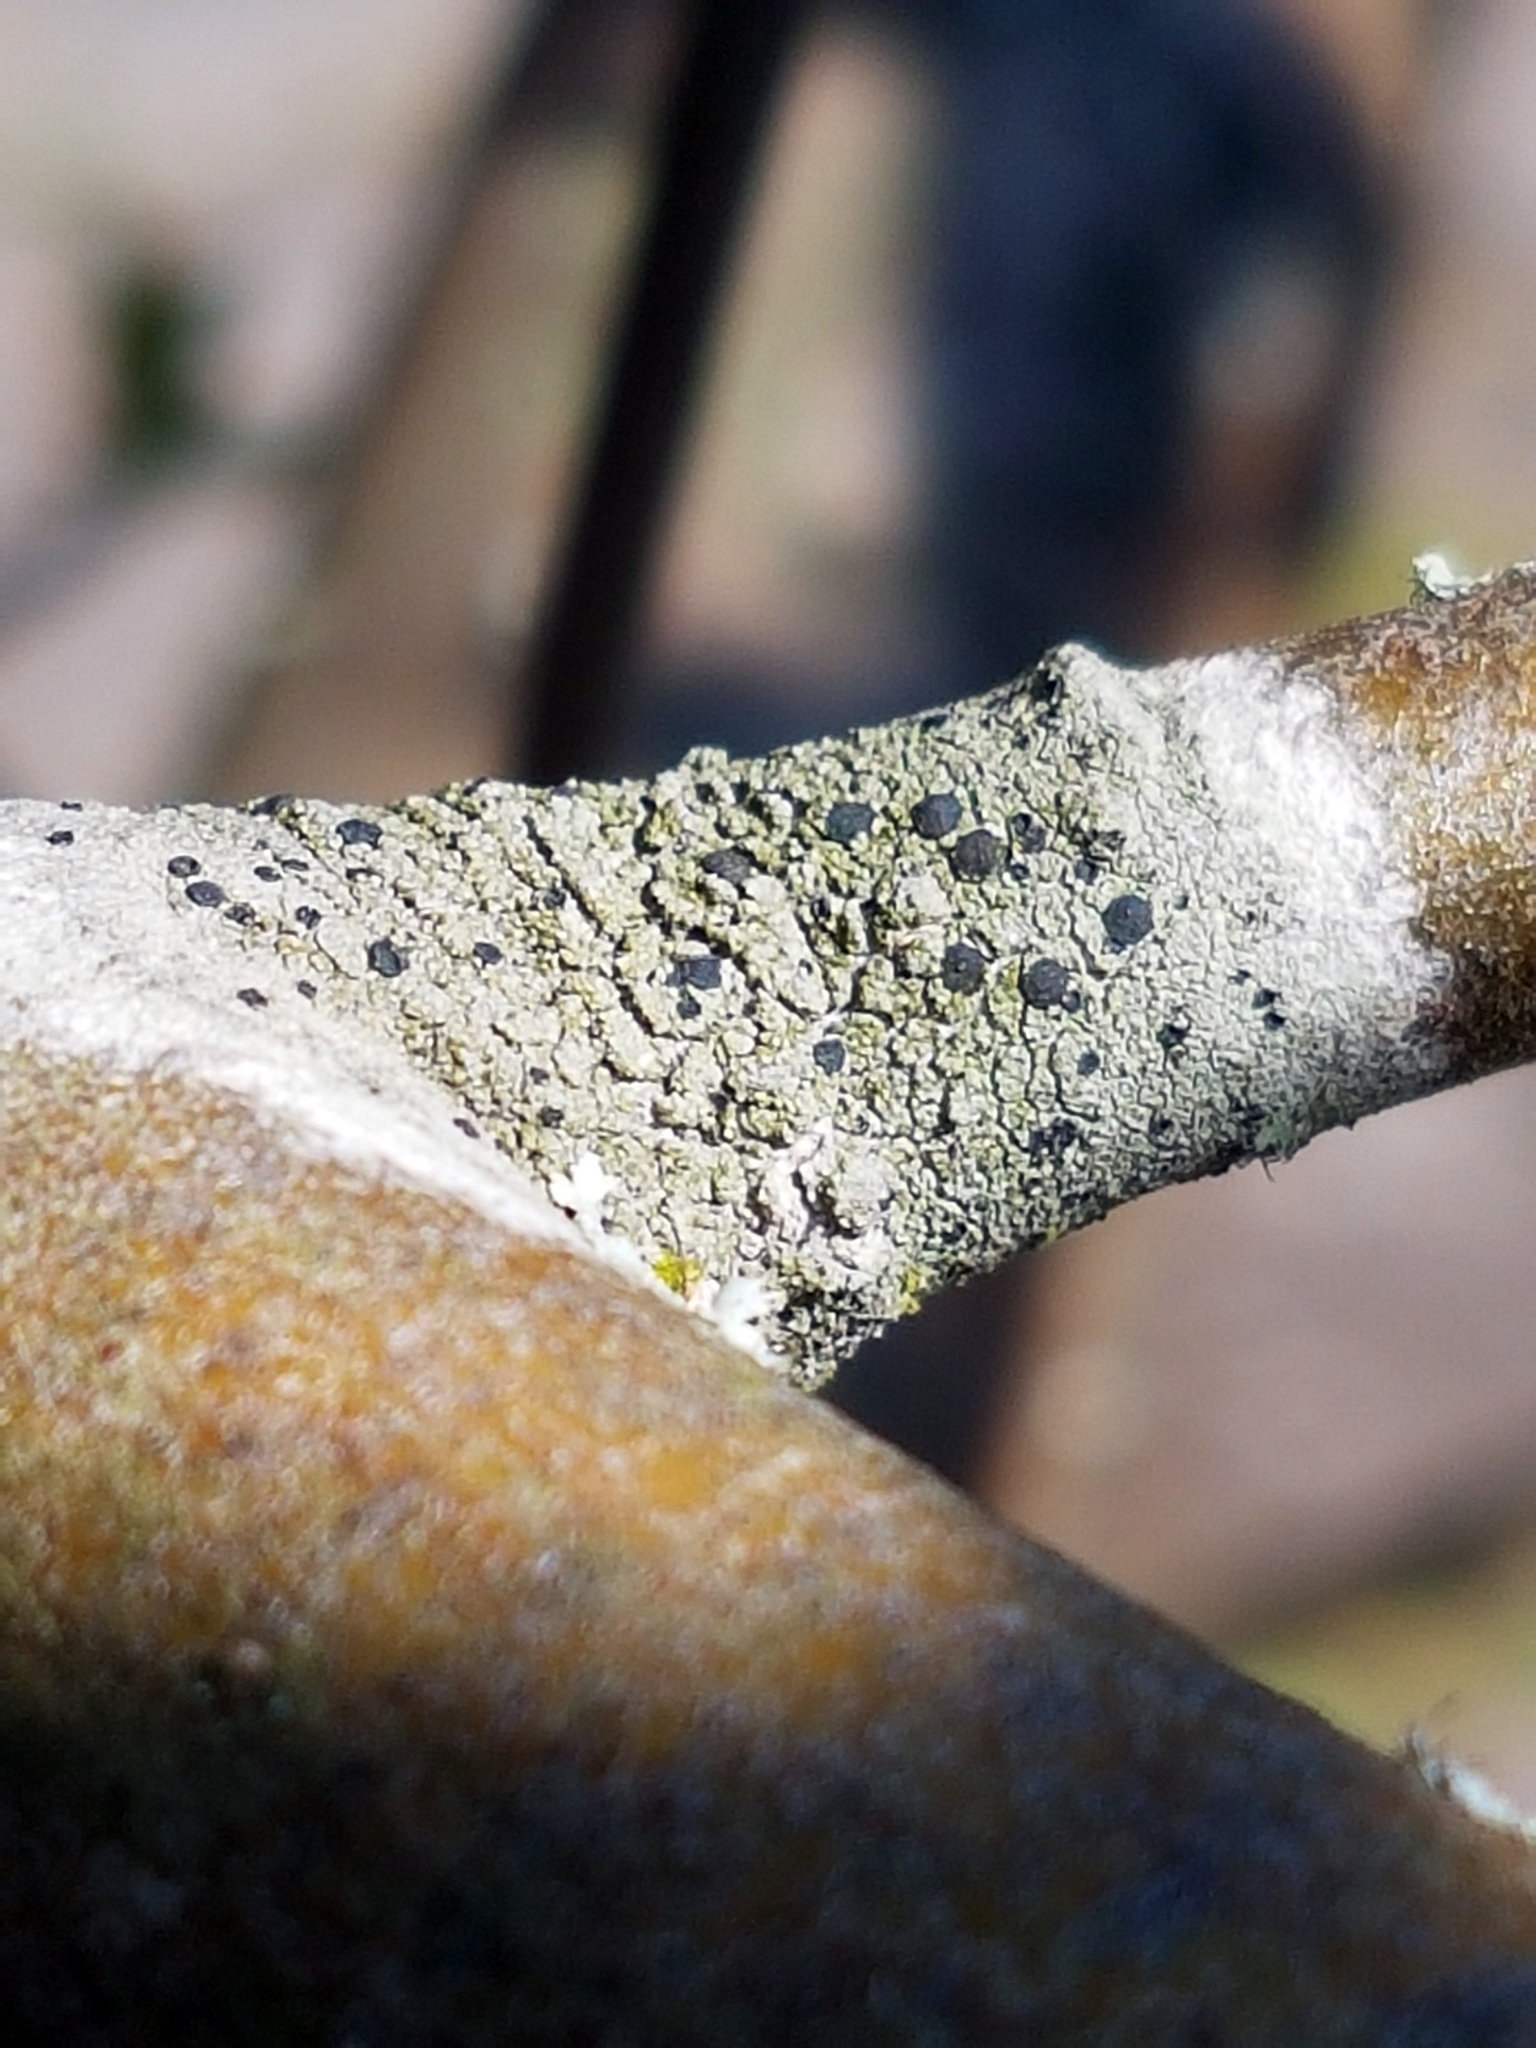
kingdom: Fungi
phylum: Ascomycota
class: Lecanoromycetes
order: Lecanorales
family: Lecanoraceae
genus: Lecidella
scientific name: Lecidella elaeochroma
